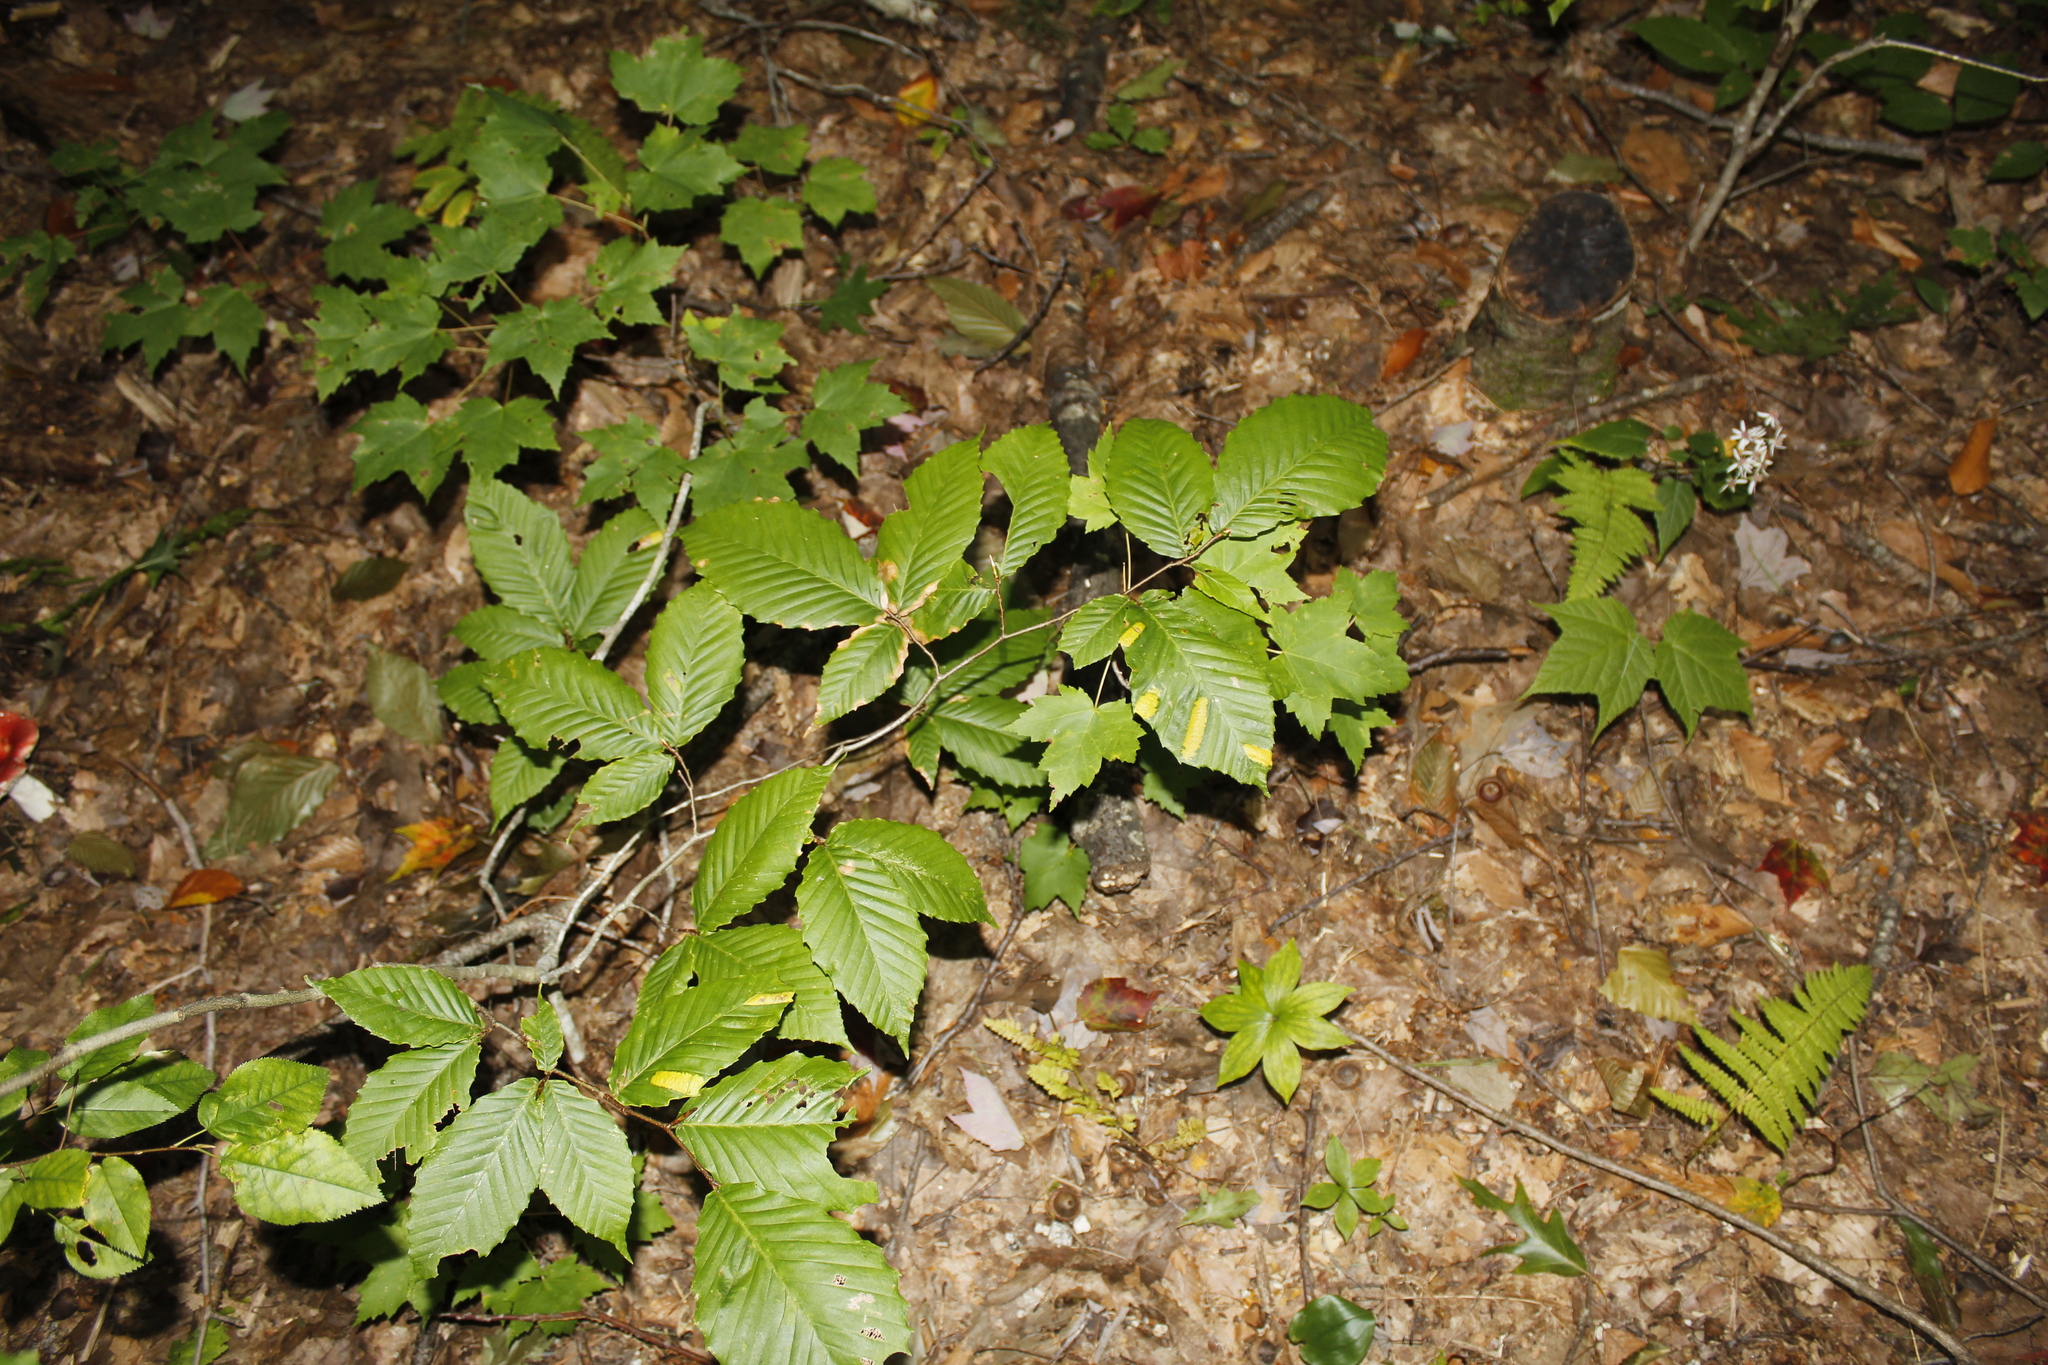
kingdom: Plantae
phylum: Tracheophyta
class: Magnoliopsida
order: Fagales
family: Fagaceae
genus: Fagus
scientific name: Fagus grandifolia
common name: American beech
